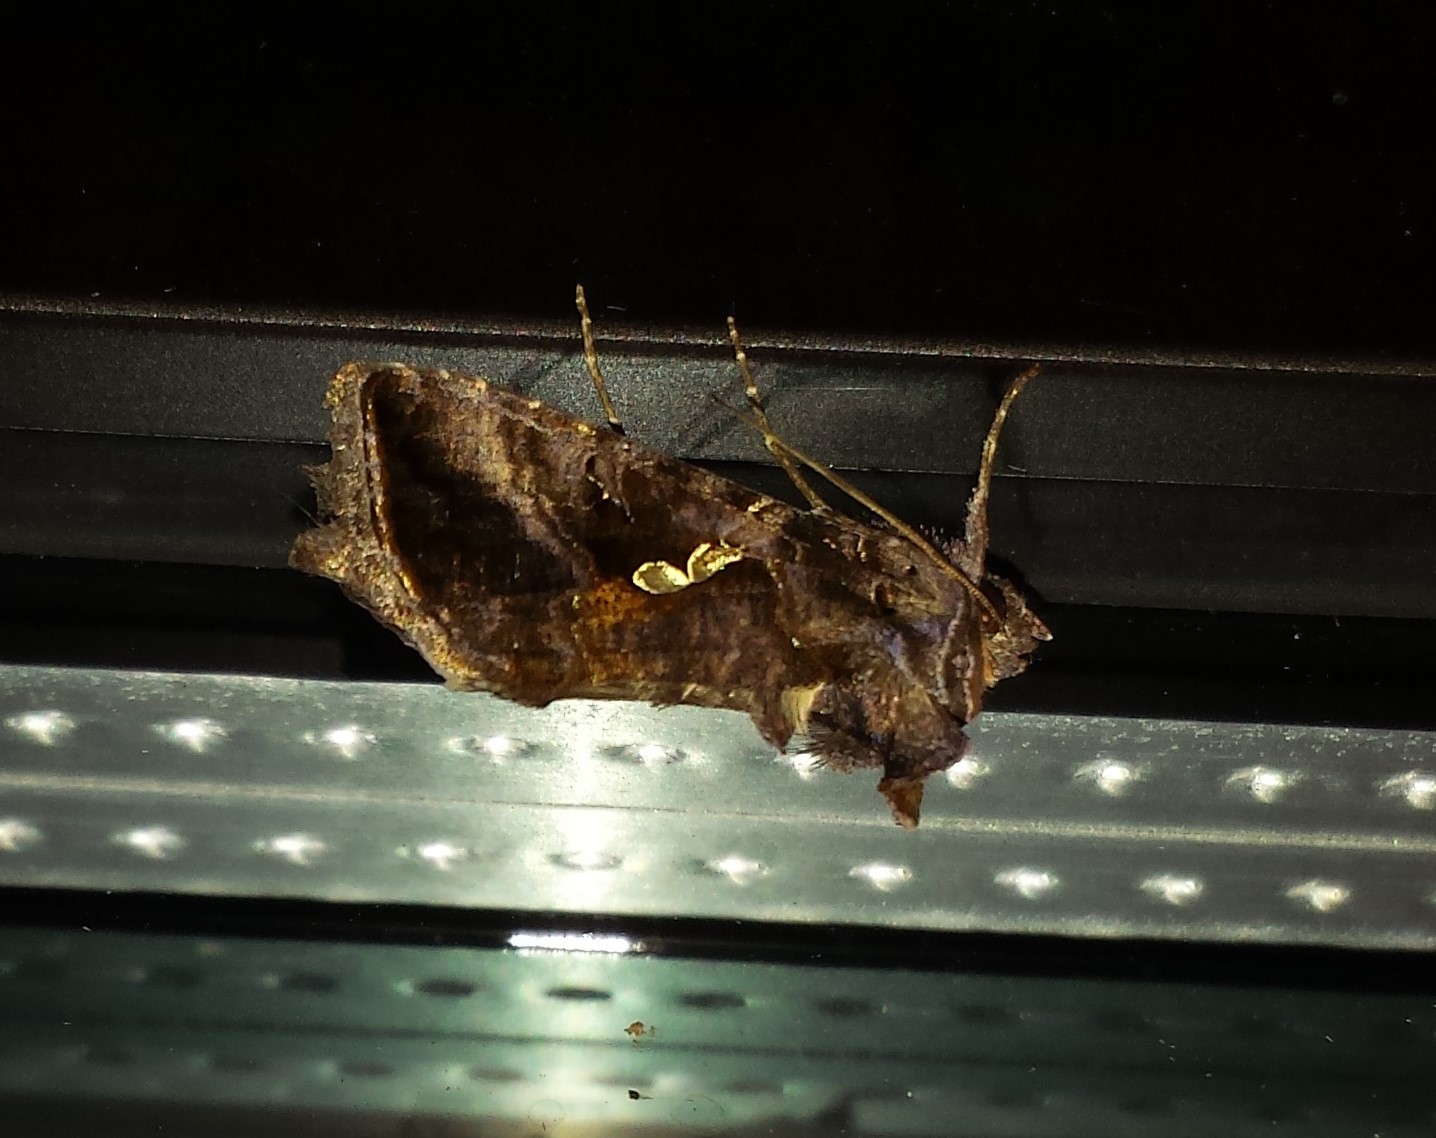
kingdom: Animalia
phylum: Arthropoda
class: Insecta
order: Lepidoptera
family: Noctuidae
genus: Autographa
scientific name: Autographa precationis
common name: Common looper moth
